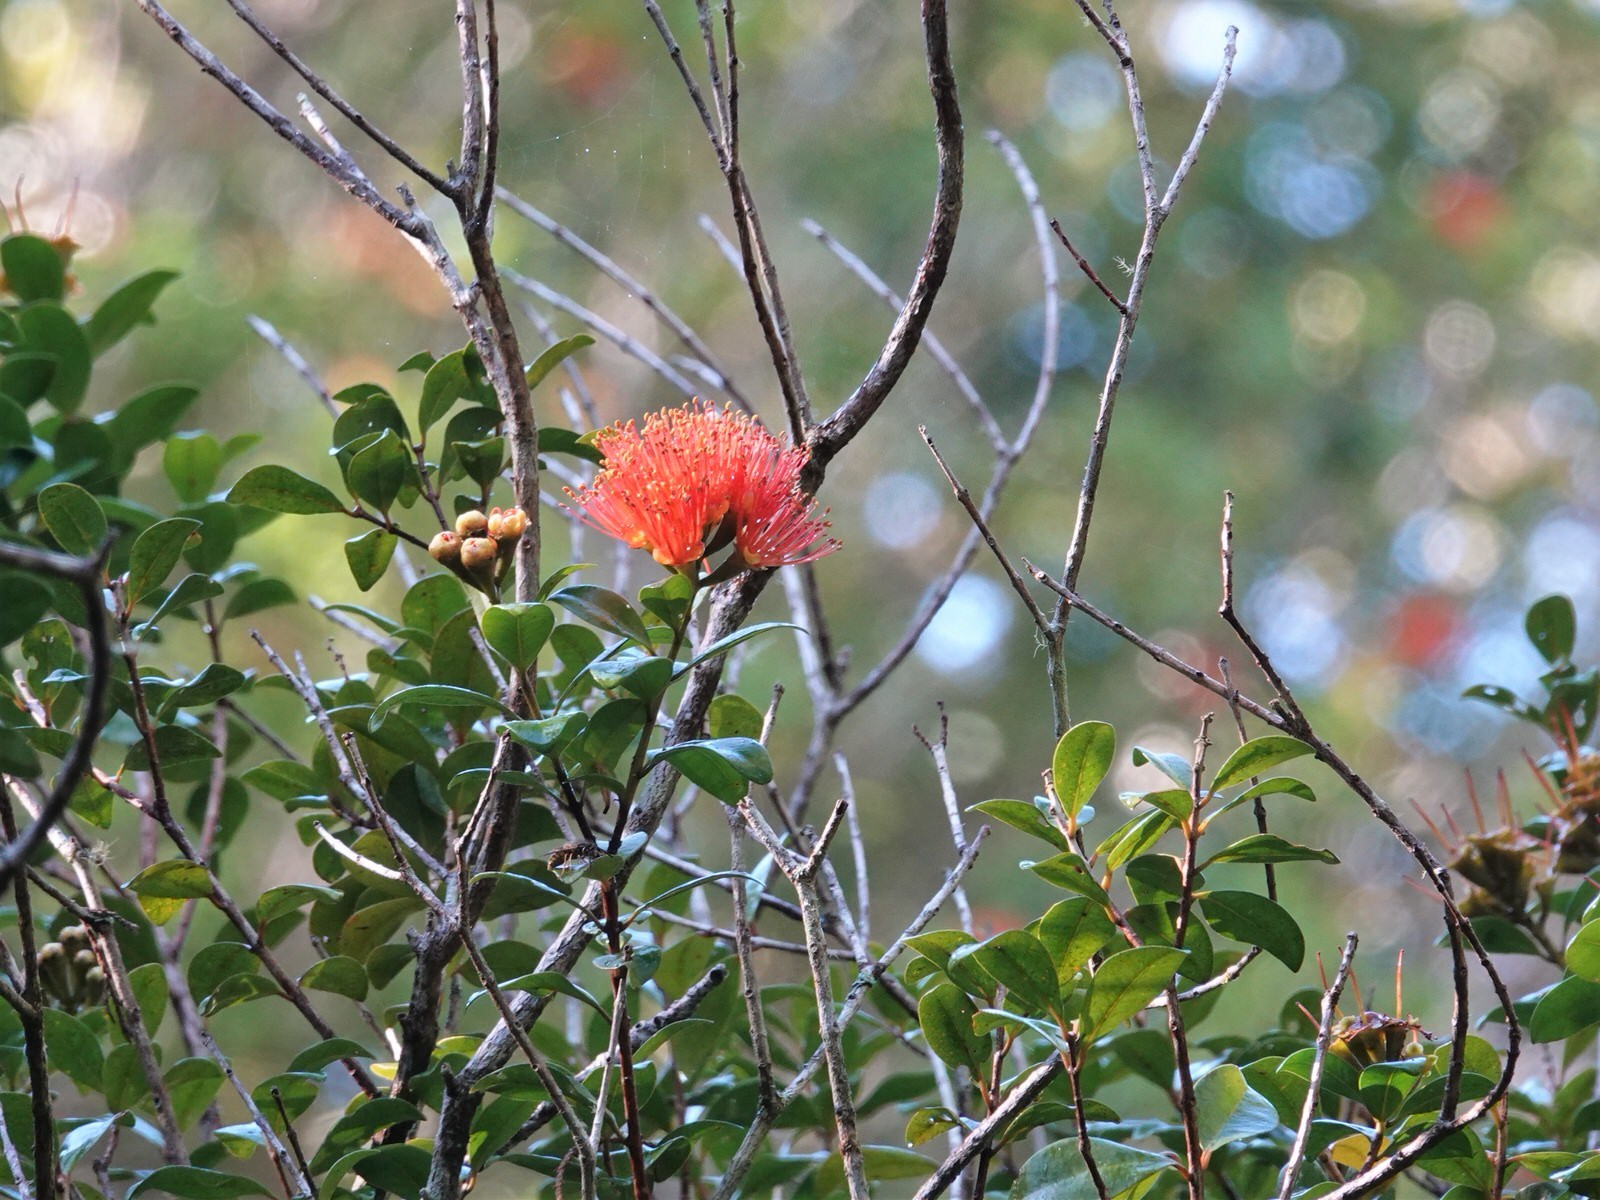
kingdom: Plantae
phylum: Tracheophyta
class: Magnoliopsida
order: Myrtales
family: Myrtaceae
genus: Metrosideros
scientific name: Metrosideros fulgens
